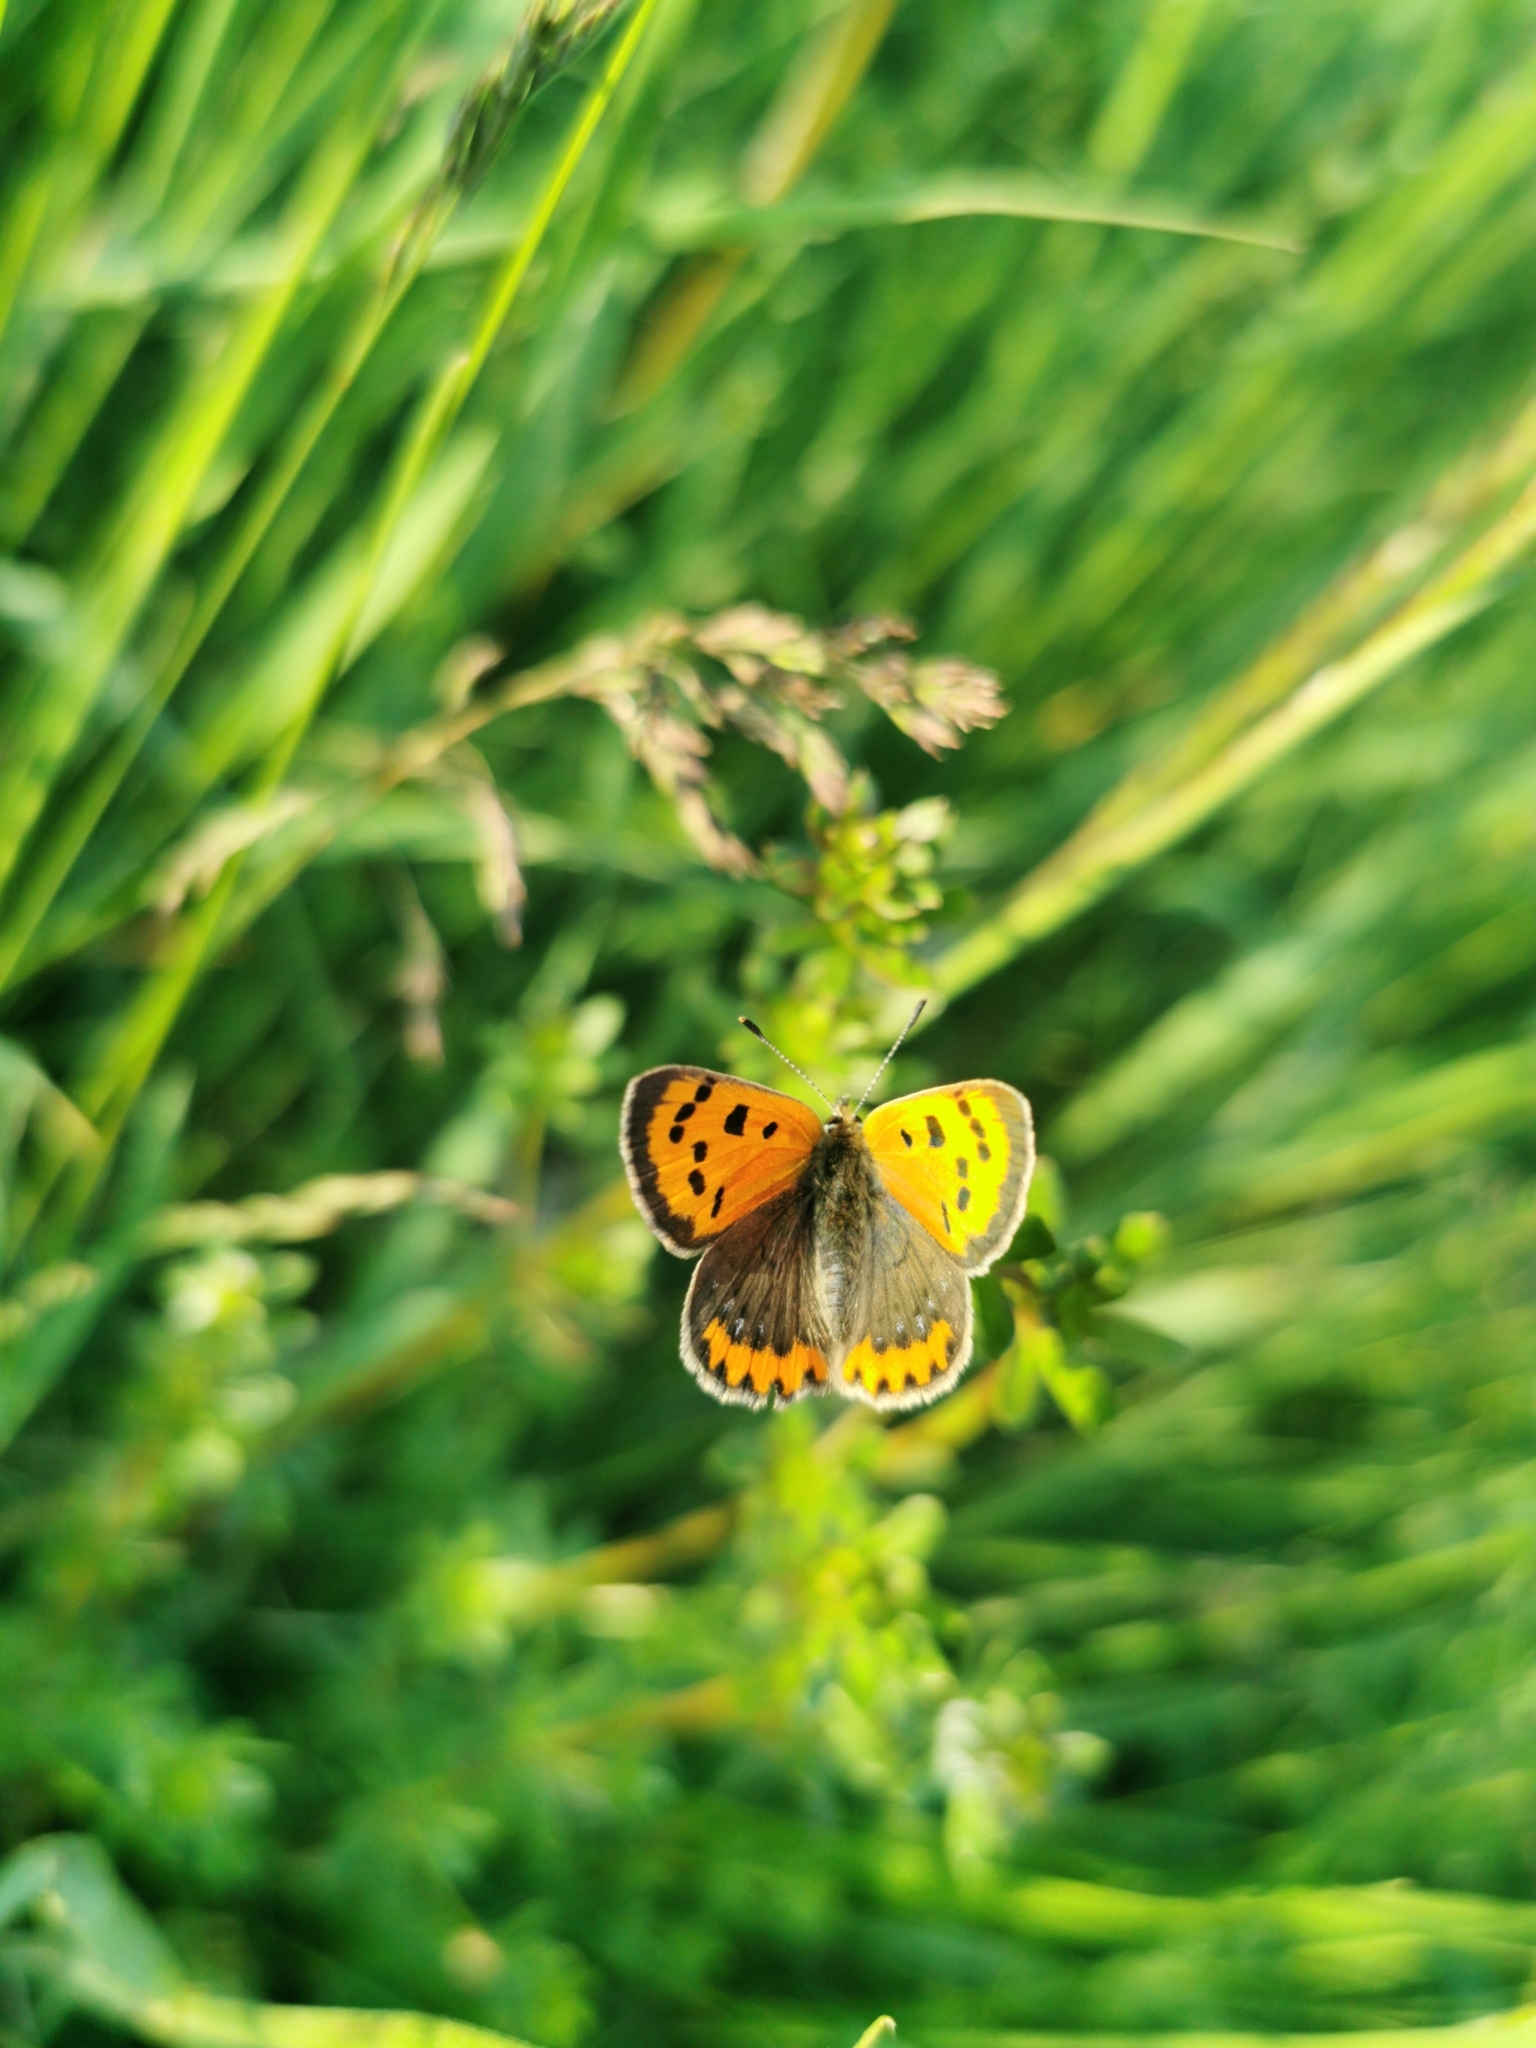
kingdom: Animalia
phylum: Arthropoda
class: Insecta
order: Lepidoptera
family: Lycaenidae
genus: Lycaena
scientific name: Lycaena phlaeas
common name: Small copper
